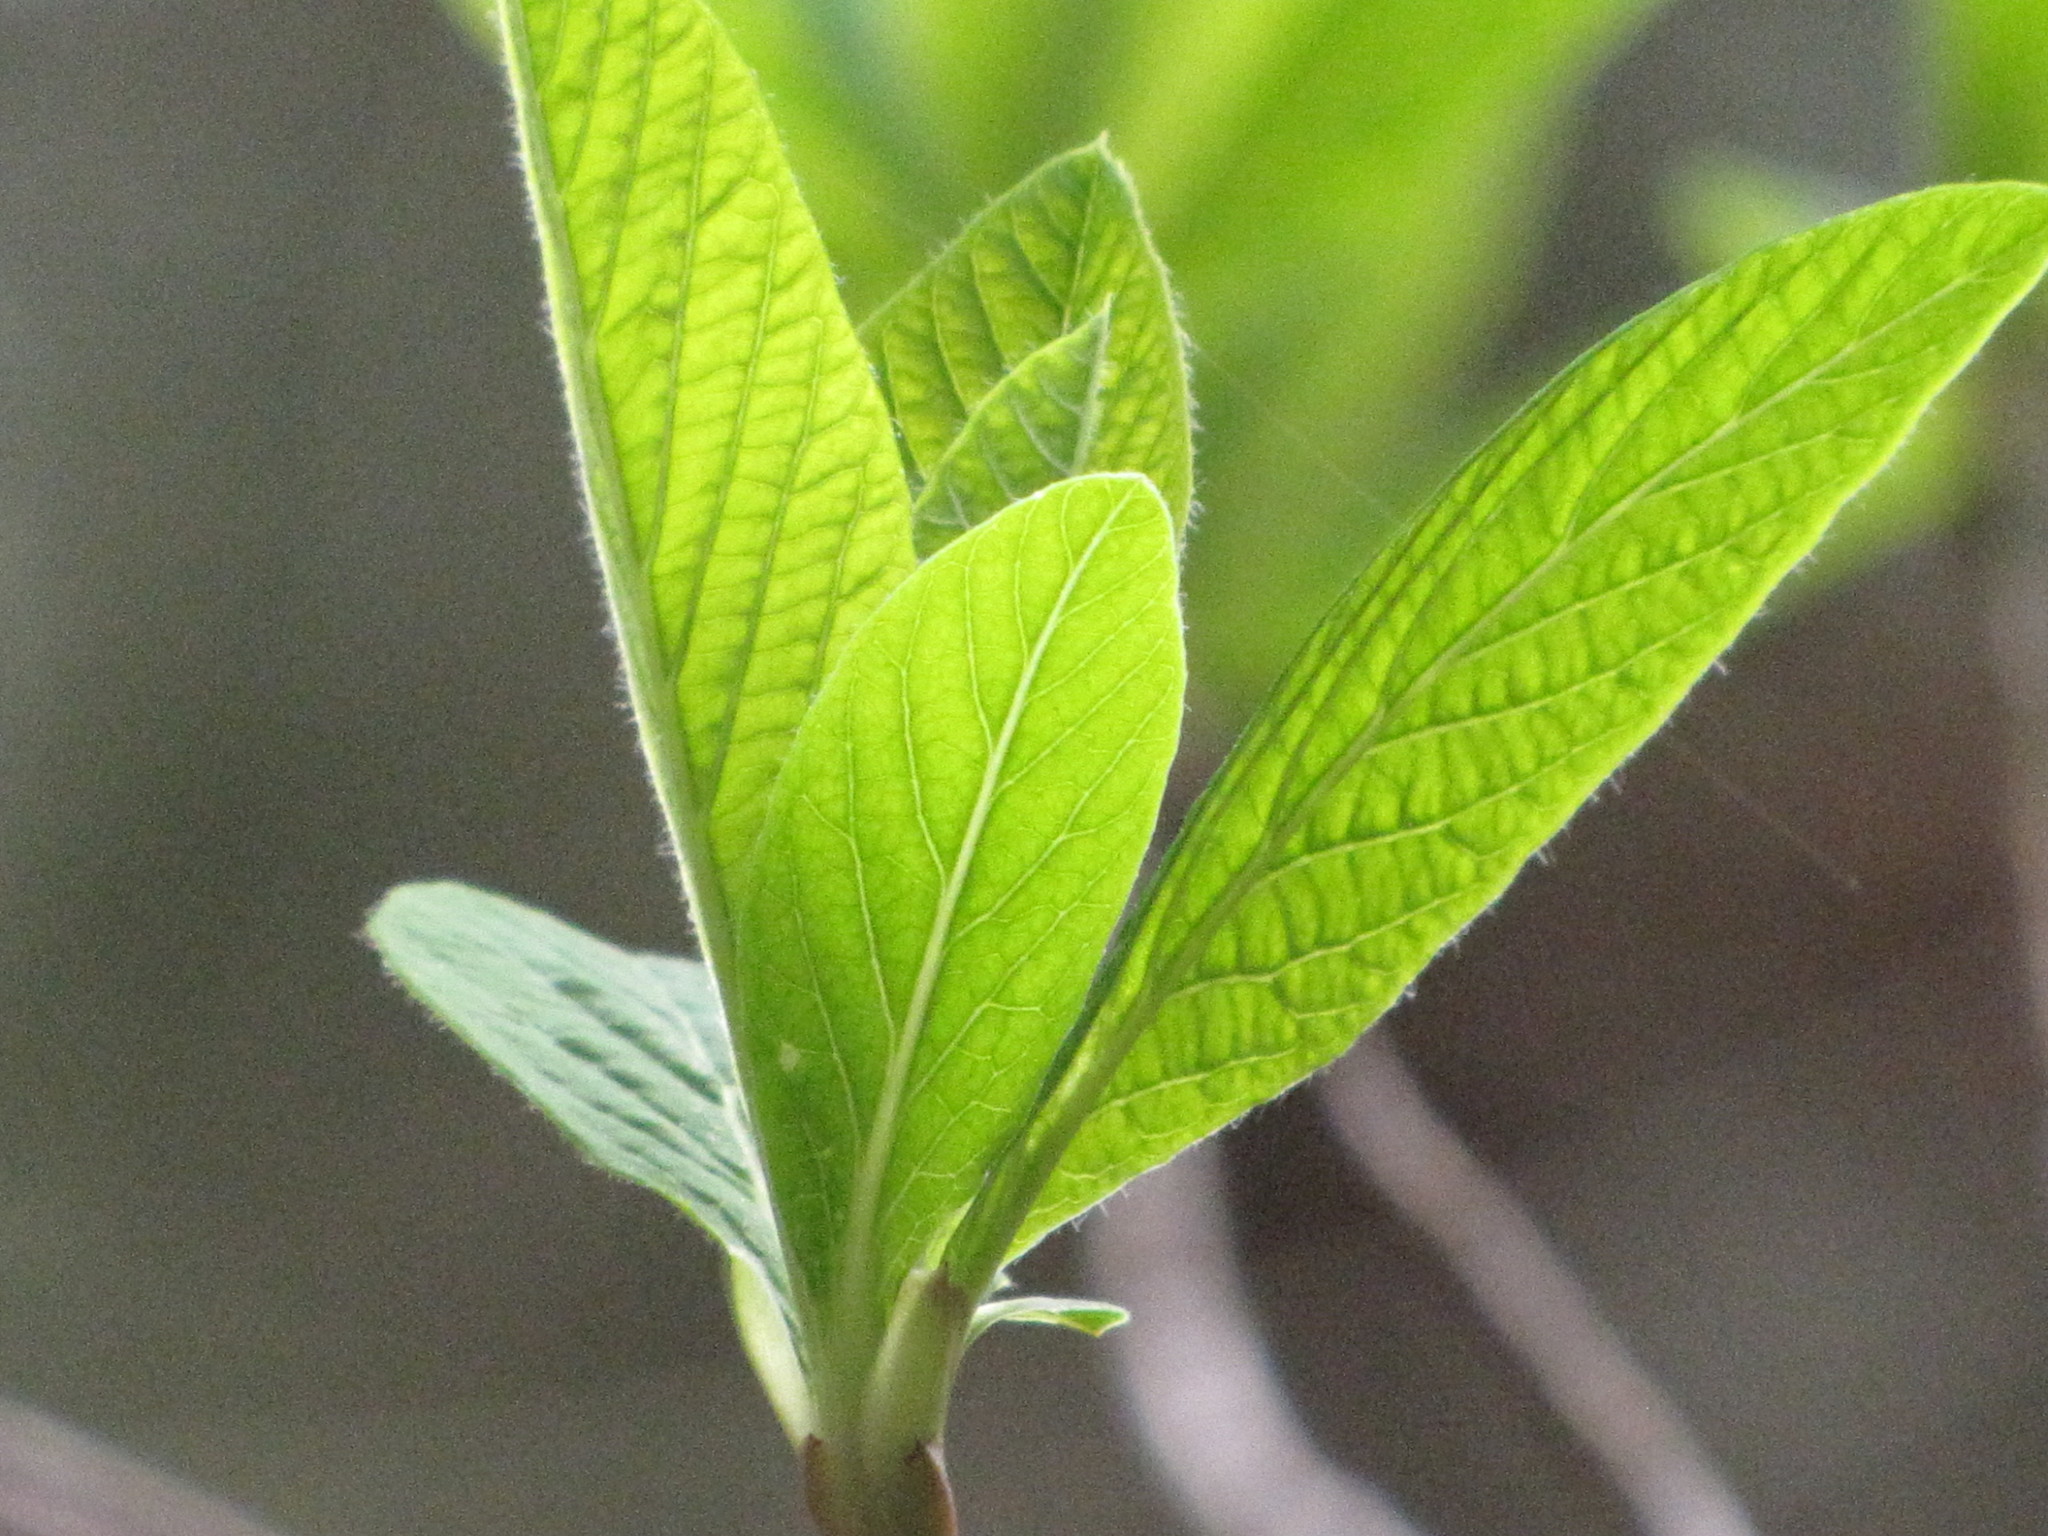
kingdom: Plantae
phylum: Tracheophyta
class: Magnoliopsida
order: Rosales
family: Rosaceae
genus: Oemleria
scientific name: Oemleria cerasiformis
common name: Osoberry
